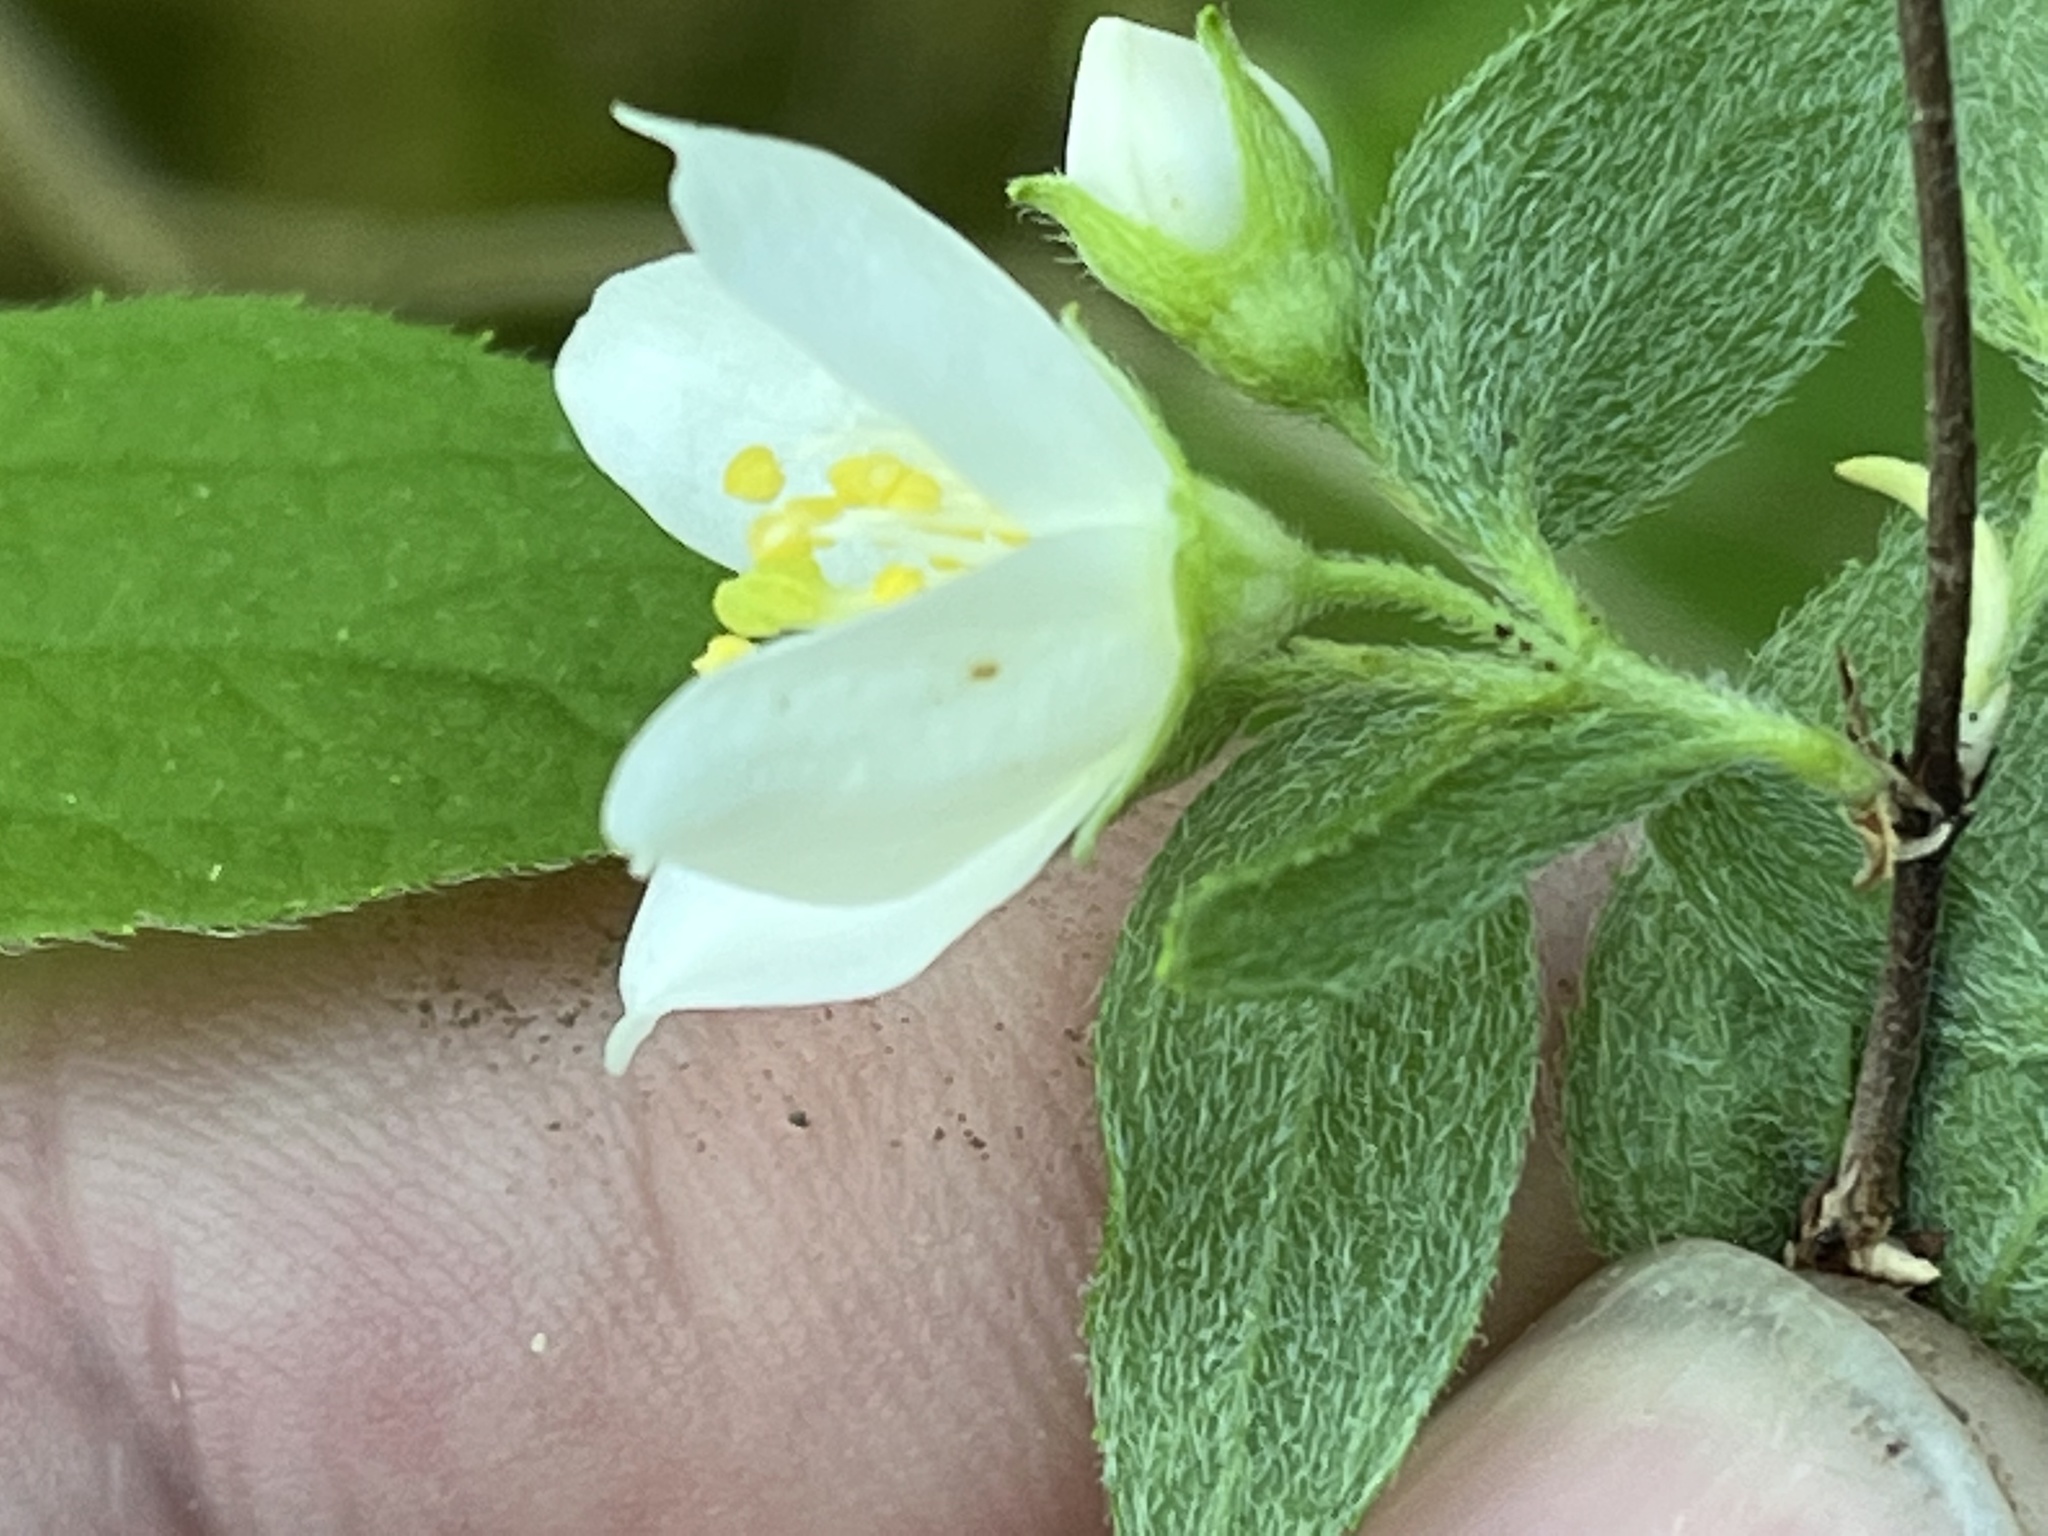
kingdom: Plantae
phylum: Tracheophyta
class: Magnoliopsida
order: Cornales
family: Hydrangeaceae
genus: Philadelphus
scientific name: Philadelphus hirsutus
